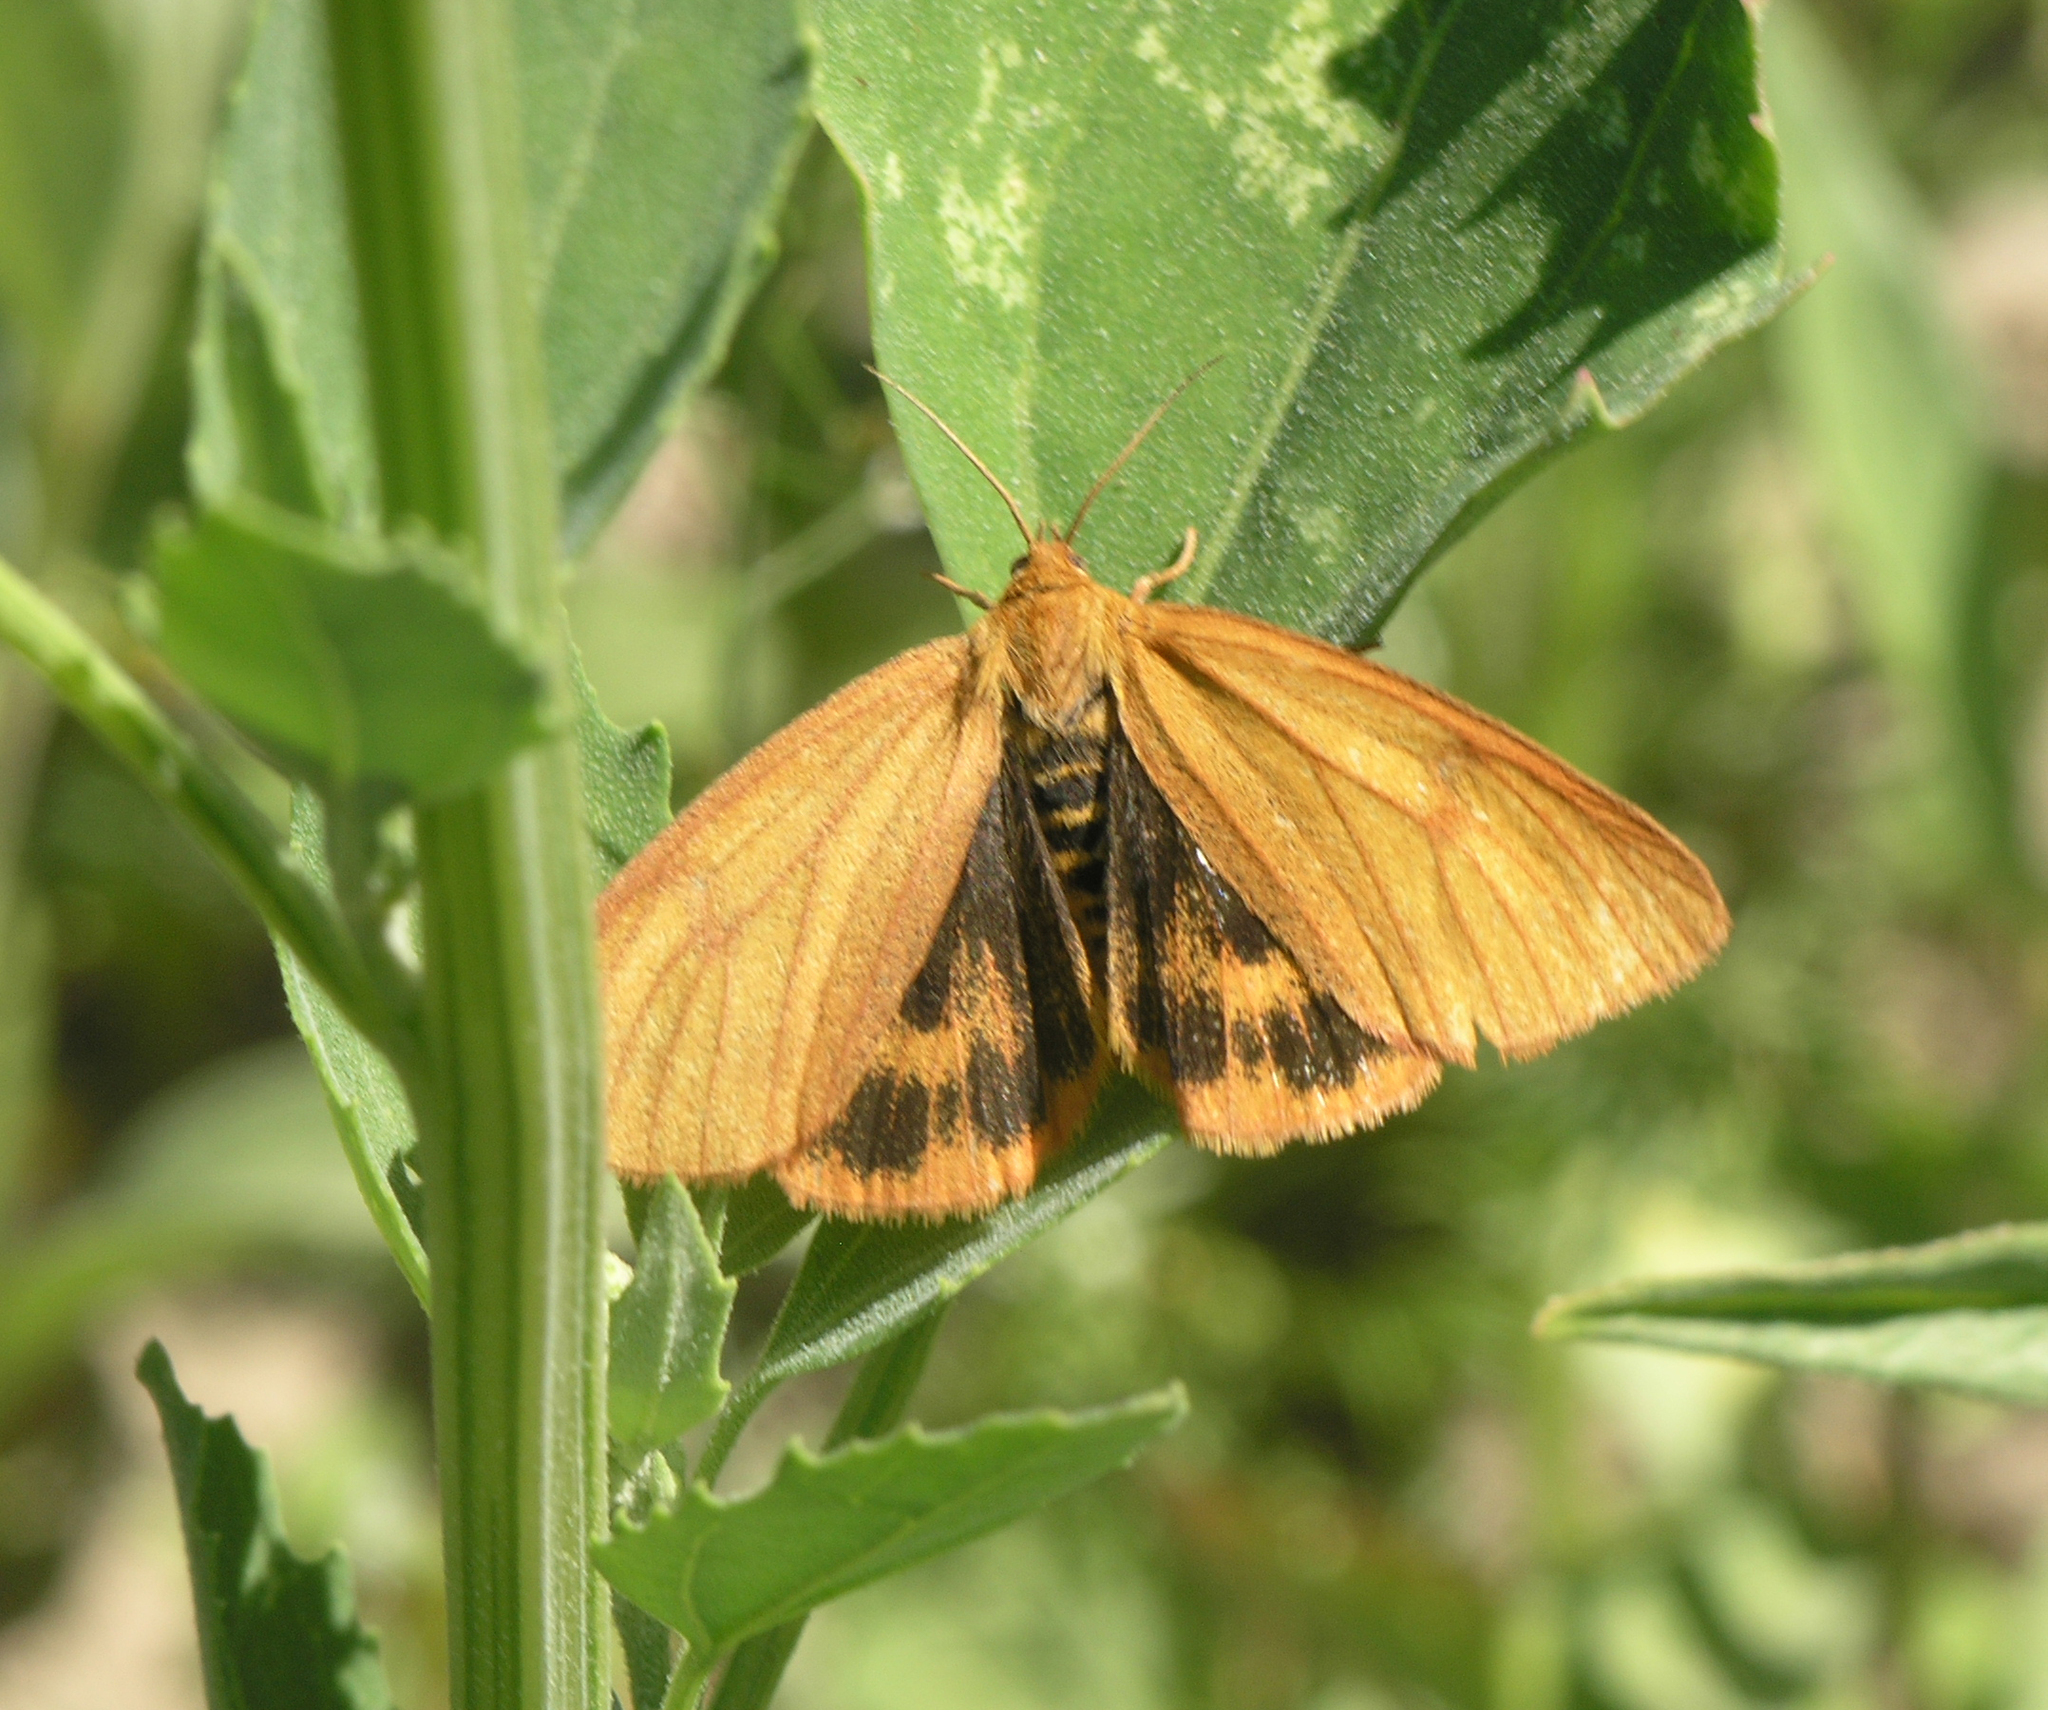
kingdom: Animalia
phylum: Arthropoda
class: Insecta
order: Lepidoptera
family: Erebidae
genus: Diacrisia
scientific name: Diacrisia sannio
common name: Clouded buff
